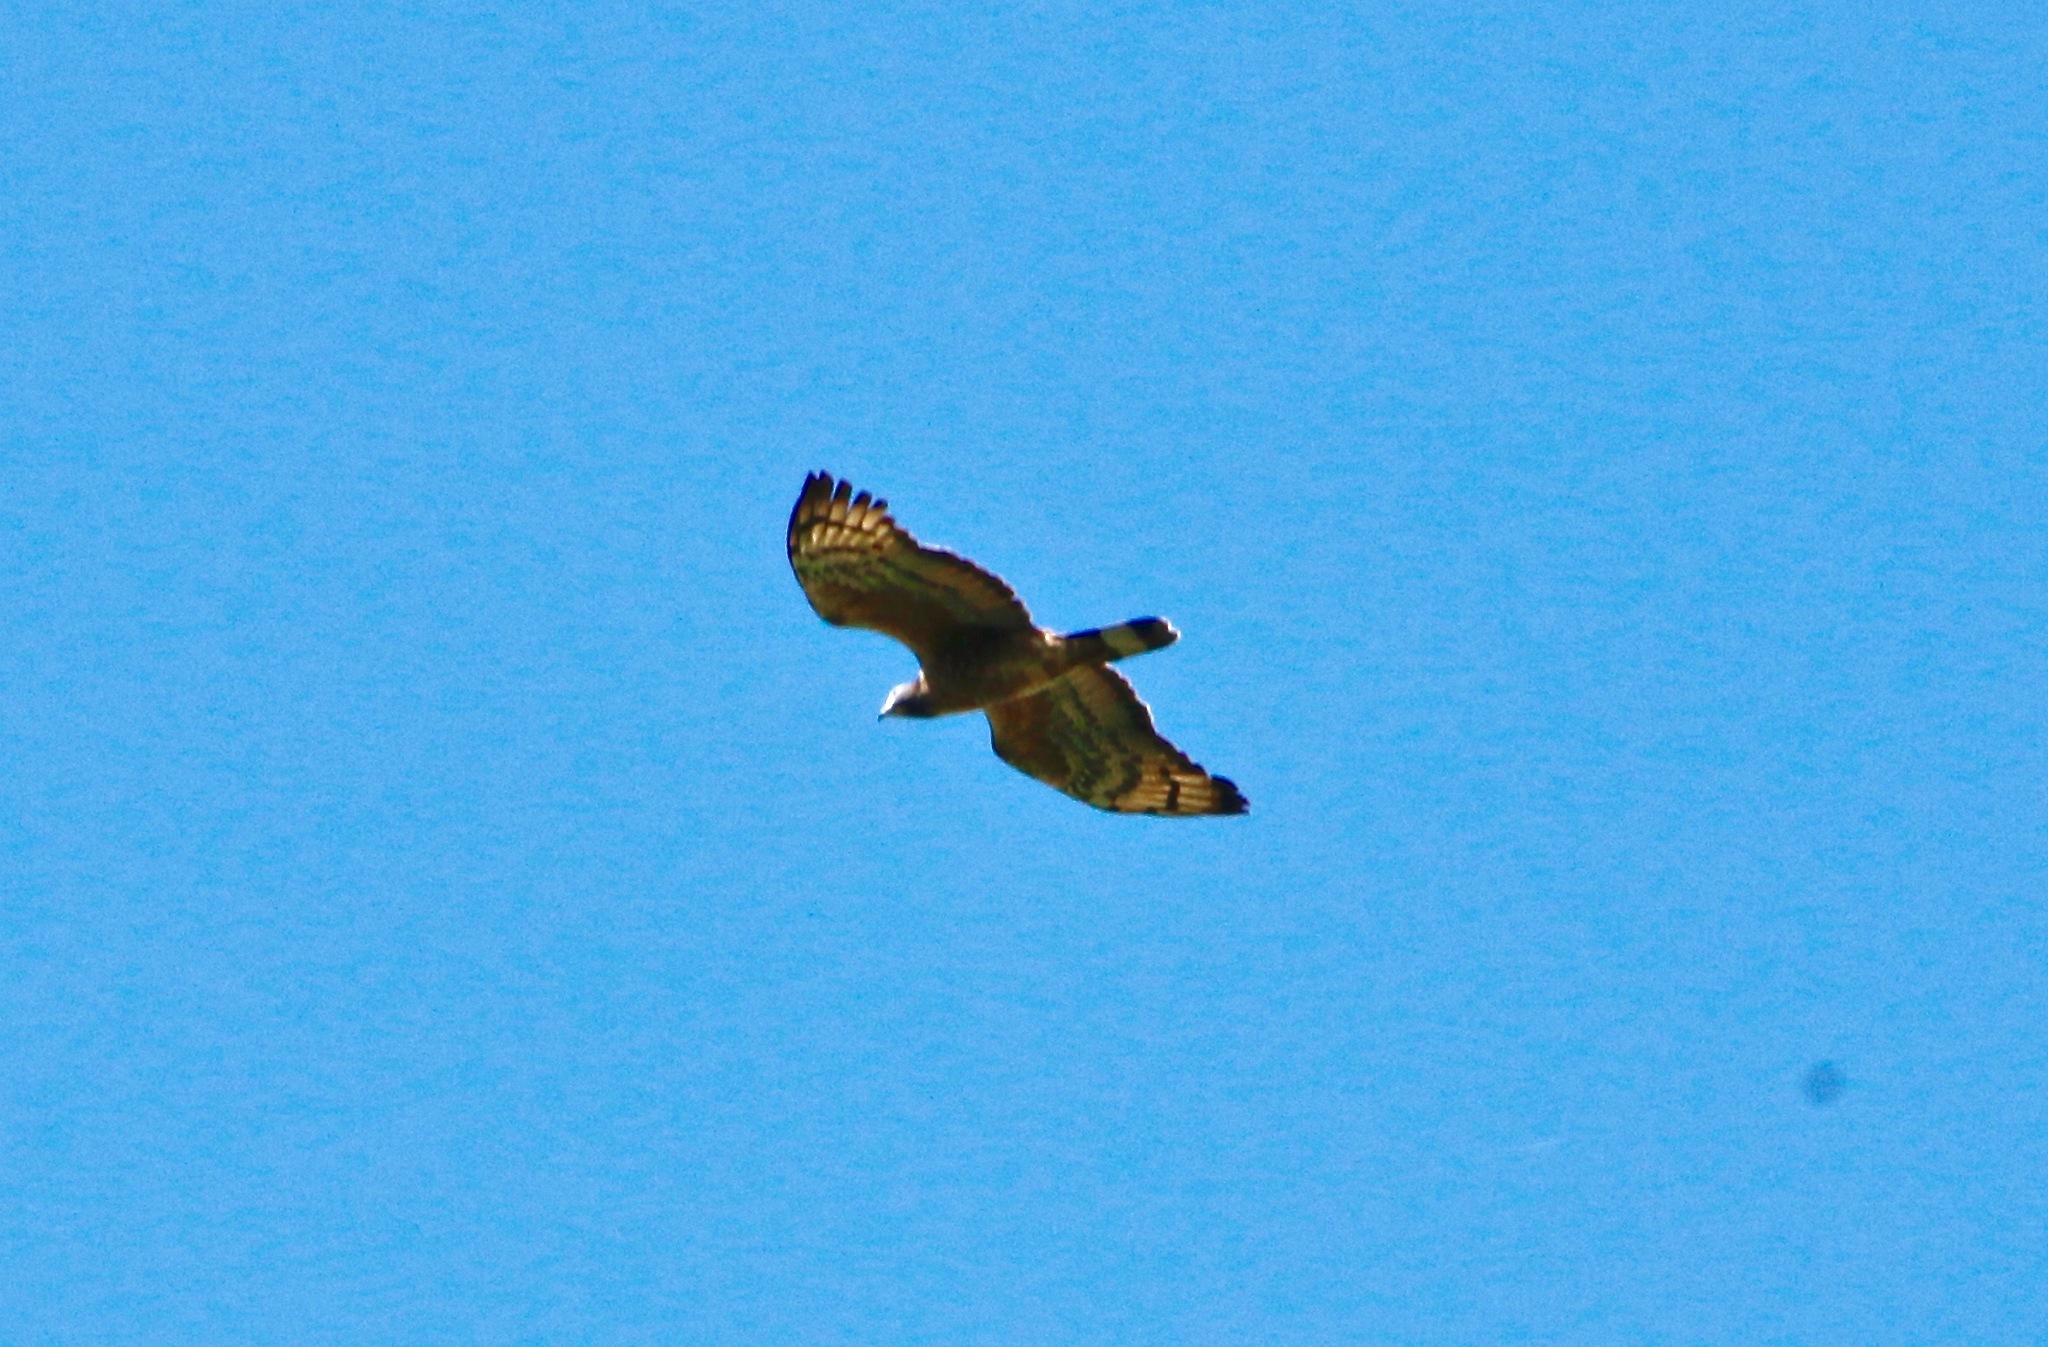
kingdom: Animalia
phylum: Chordata
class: Aves
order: Accipitriformes
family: Accipitridae
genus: Pernis
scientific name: Pernis ptilorhynchus
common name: Crested honey buzzard
